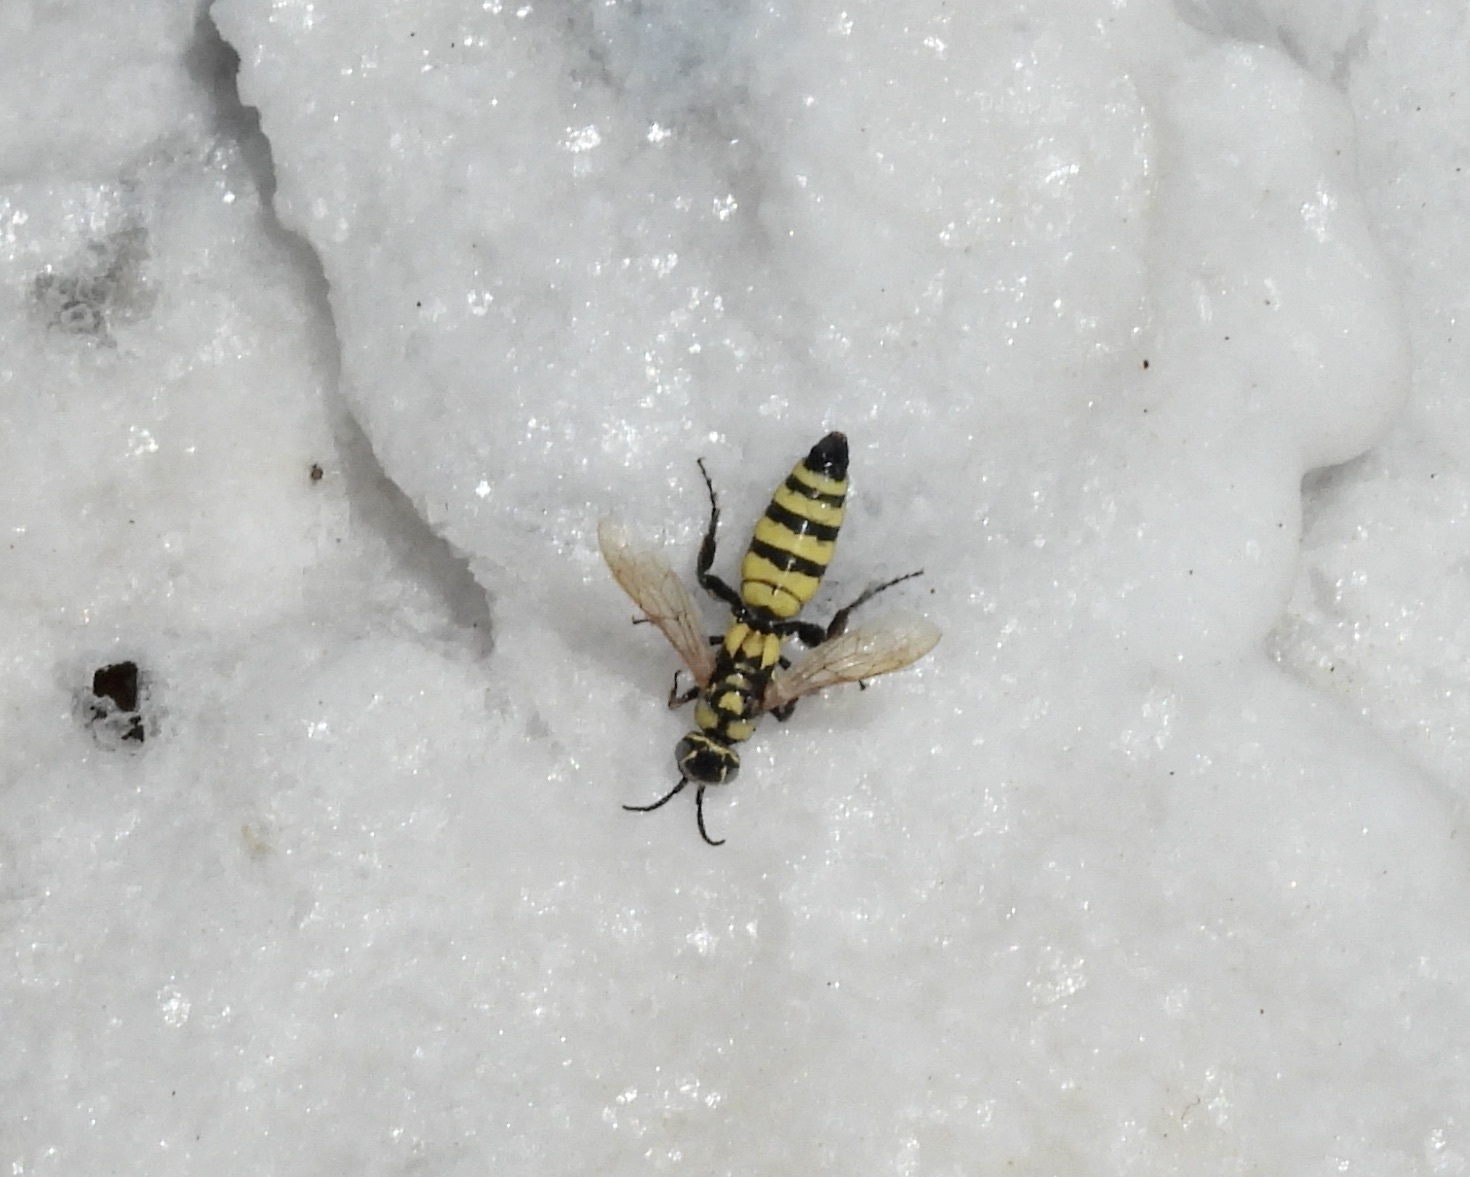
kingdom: Animalia
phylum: Arthropoda
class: Insecta
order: Hymenoptera
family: Tiphiidae
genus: Myzinum
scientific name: Myzinum frontalis
